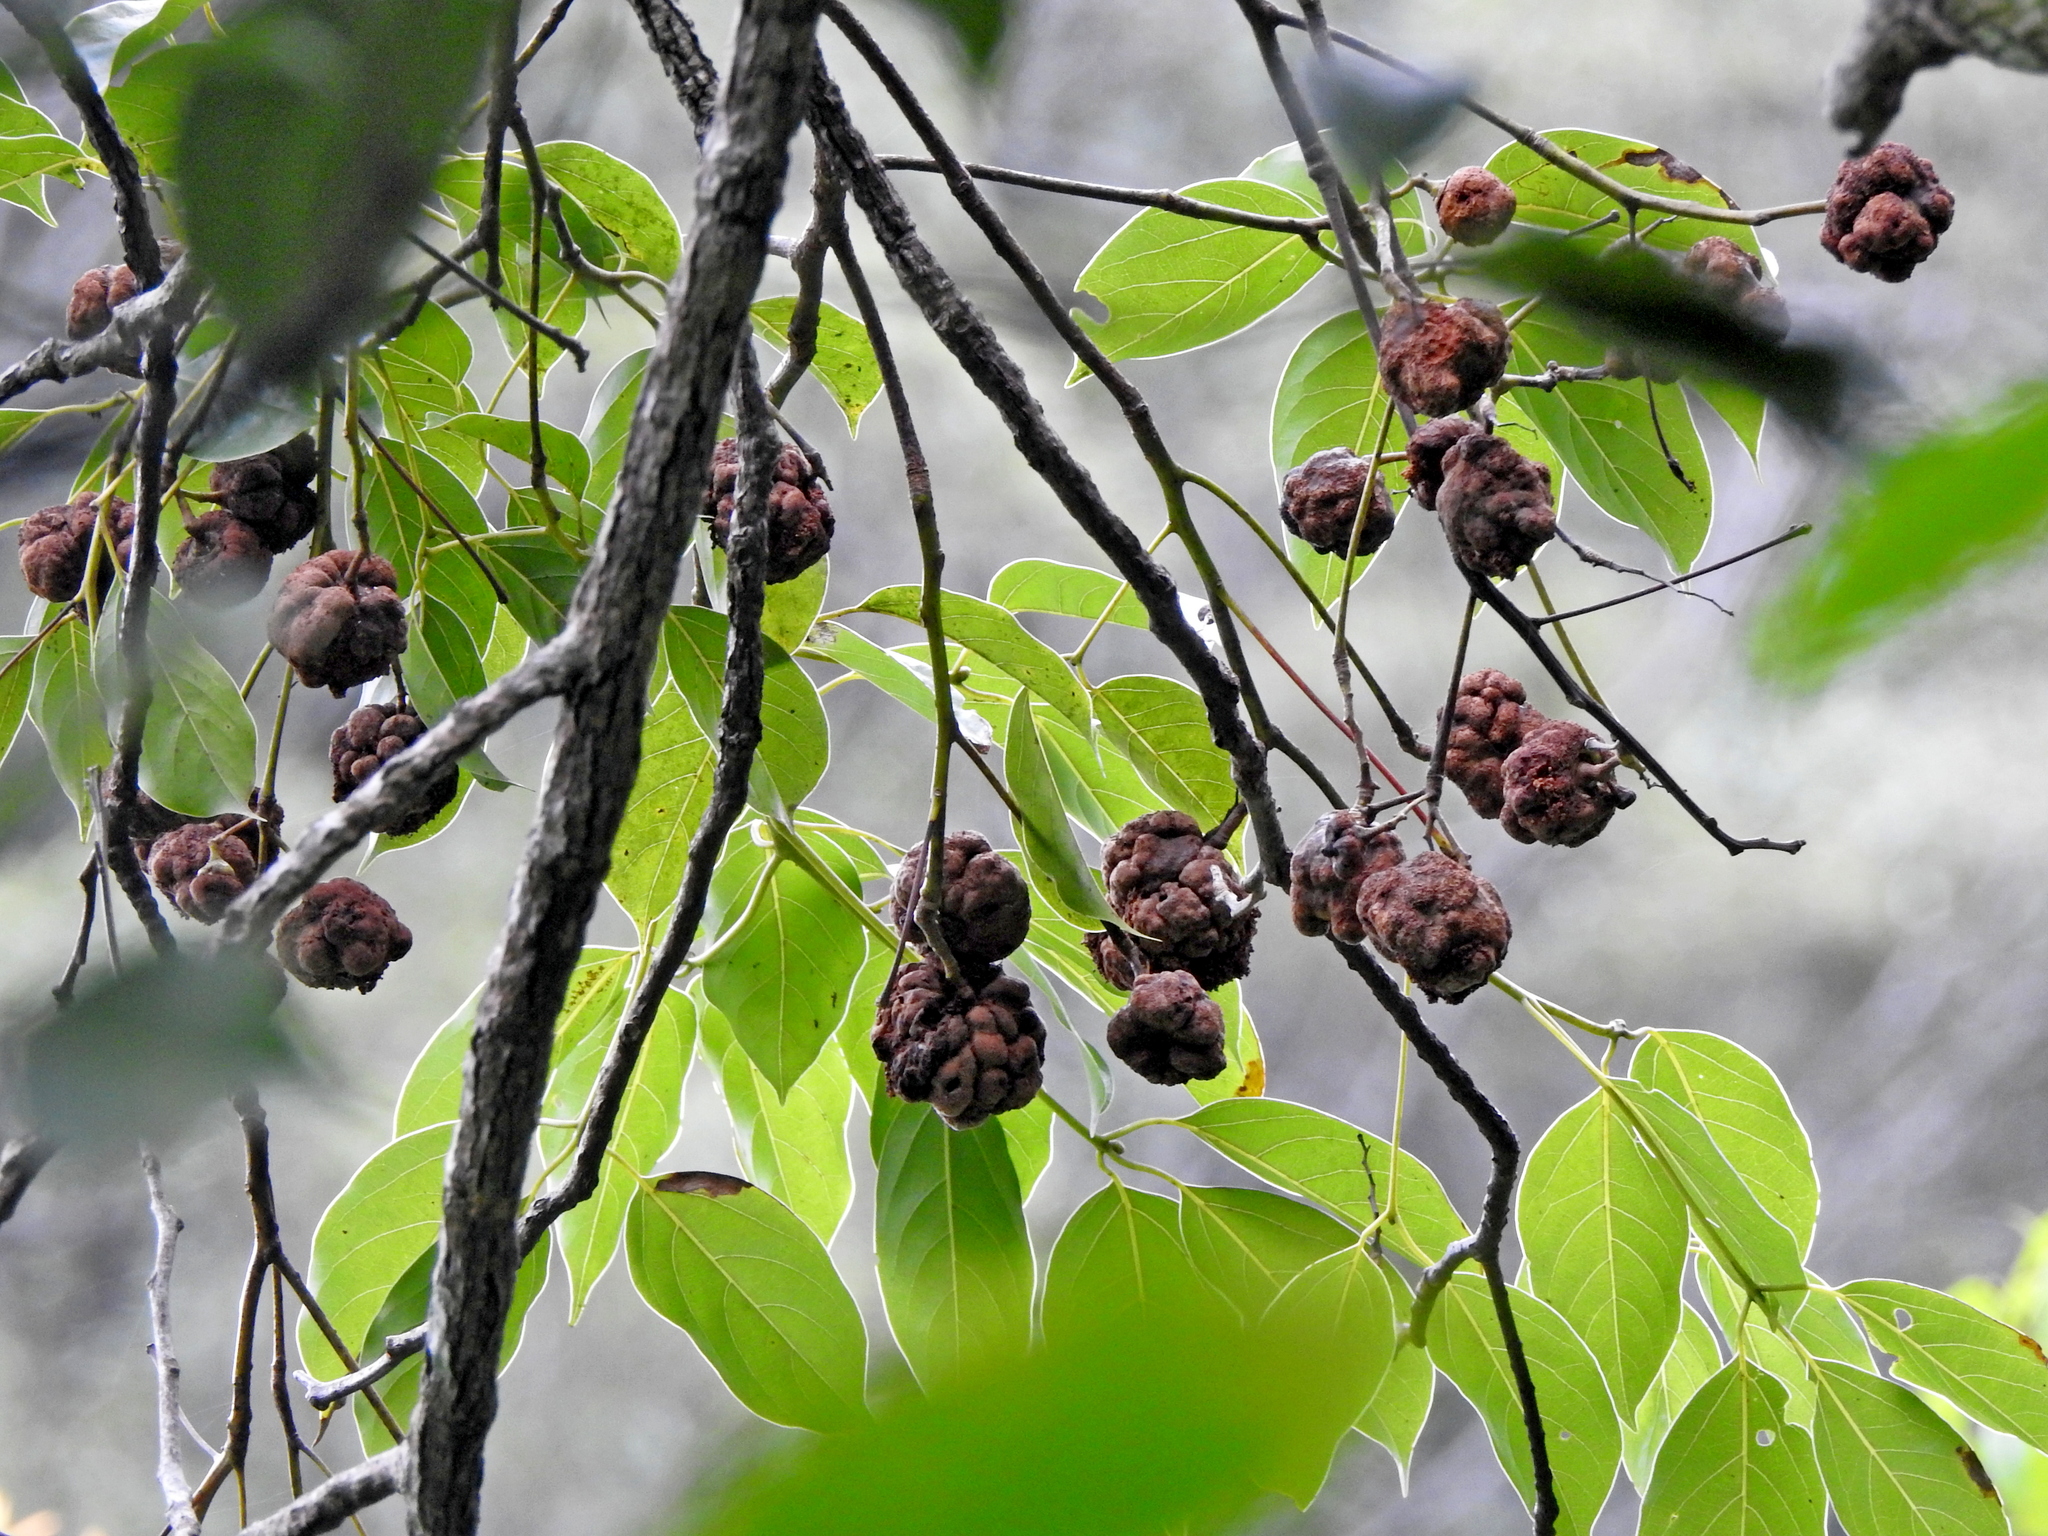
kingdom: Fungi
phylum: Basidiomycota
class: Exobasidiomycetes
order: Exobasidiales
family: Cryptobasidiaceae
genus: Clinoconidium
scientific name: Clinoconidium sawadae
